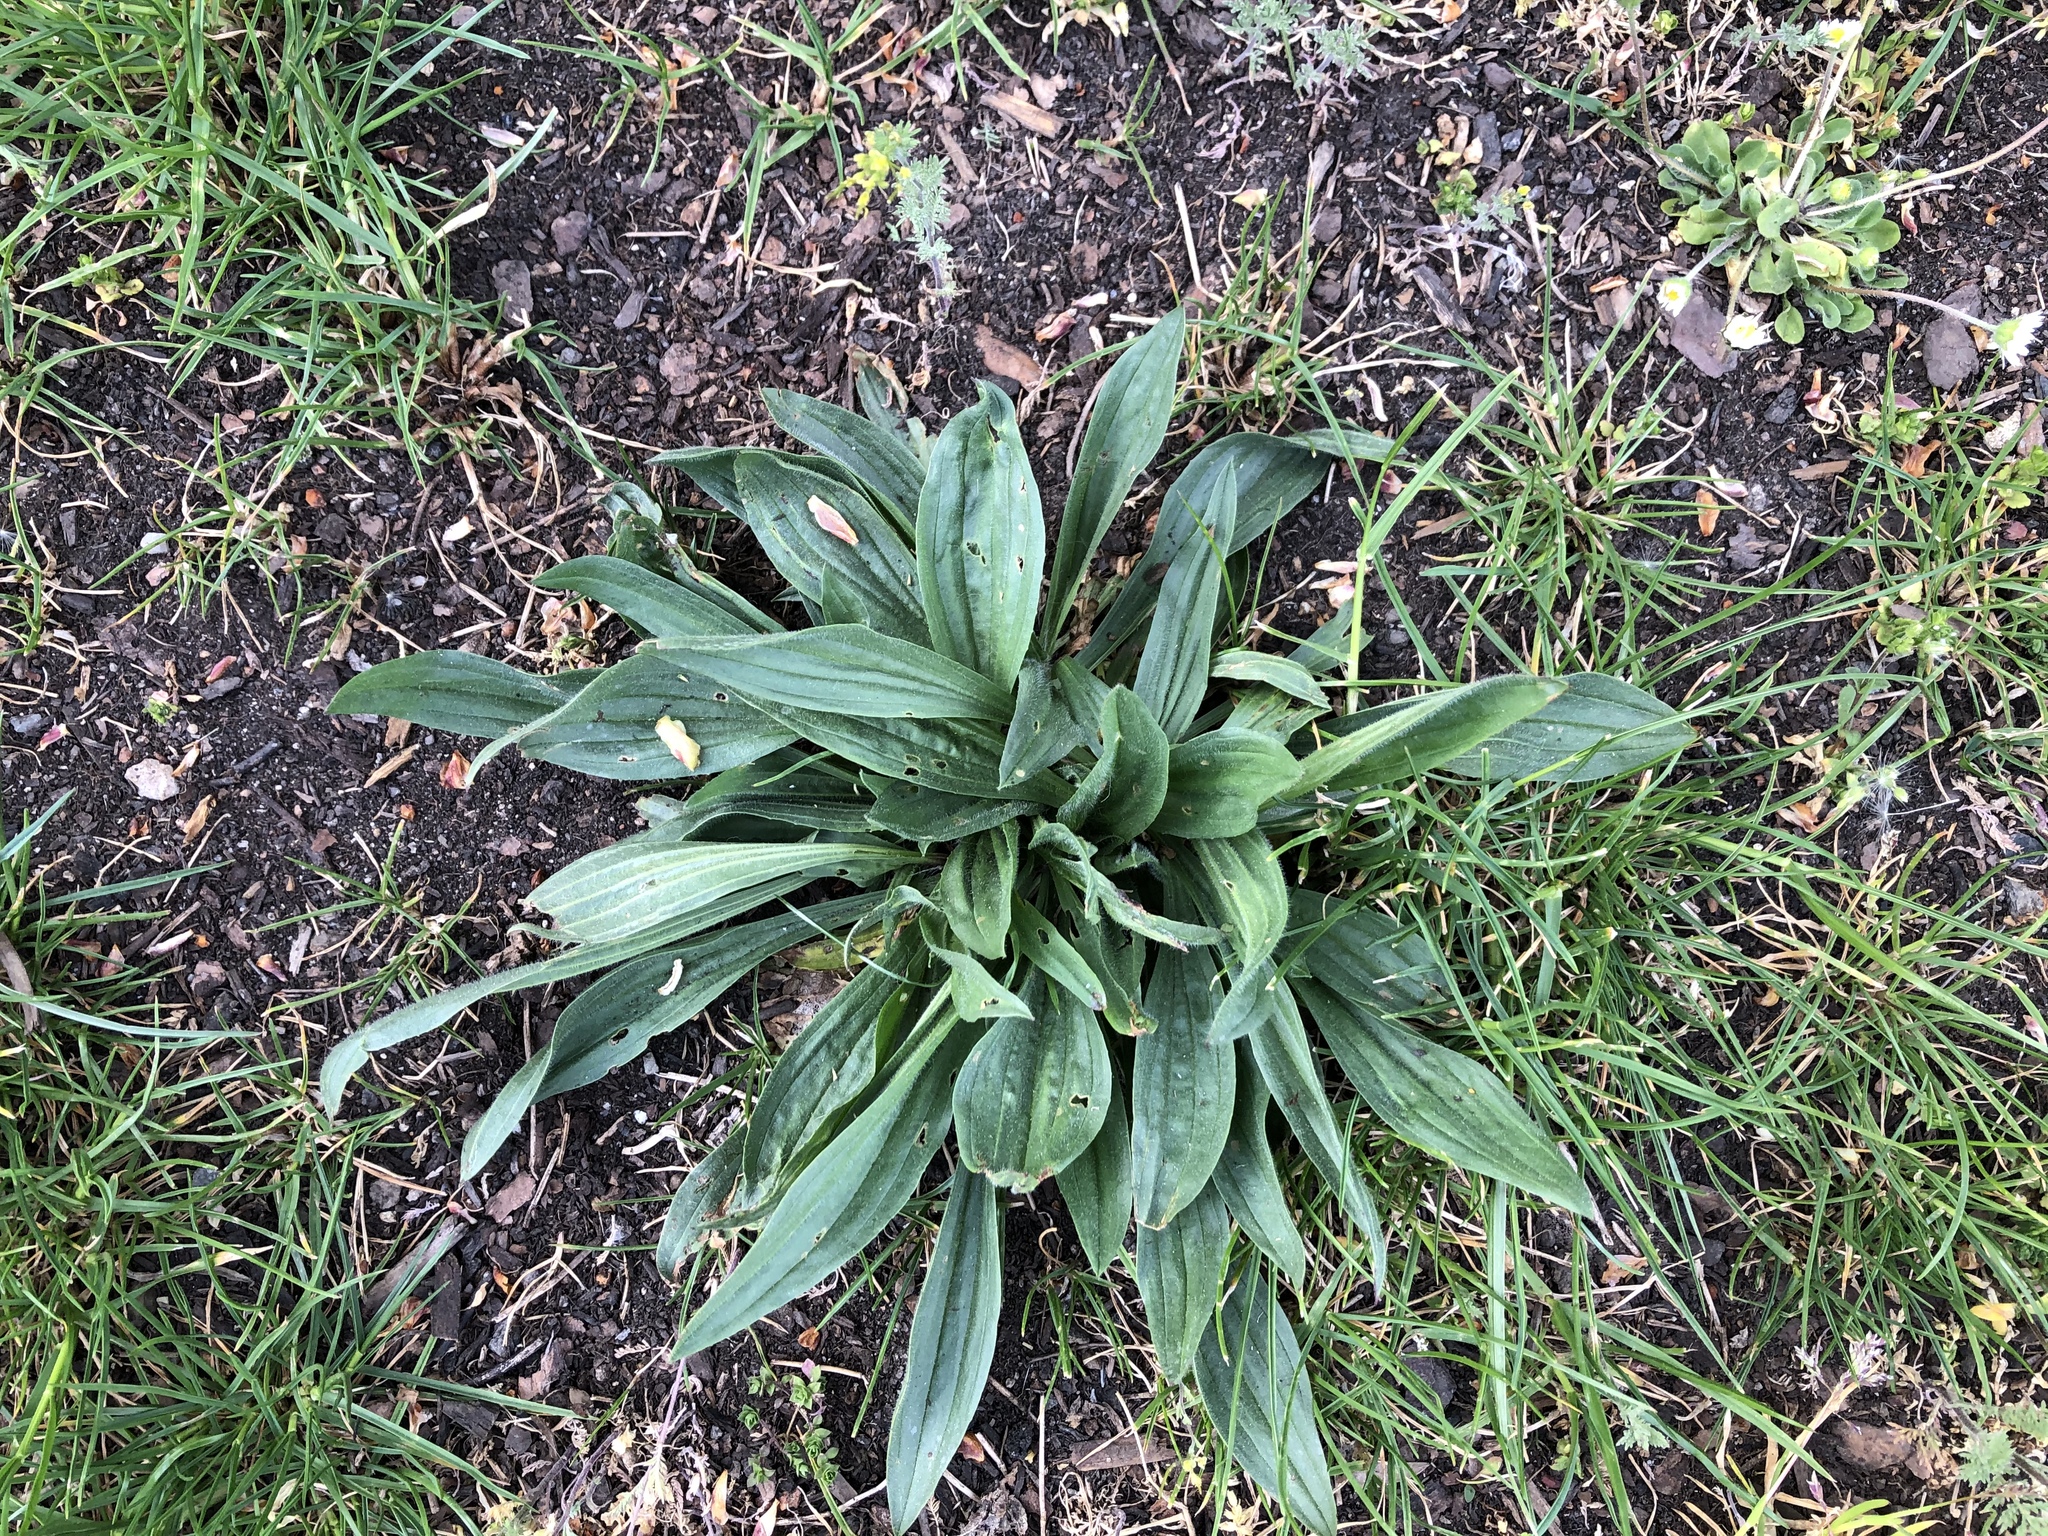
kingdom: Plantae
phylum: Tracheophyta
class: Magnoliopsida
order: Lamiales
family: Plantaginaceae
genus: Plantago
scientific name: Plantago lanceolata
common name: Ribwort plantain
